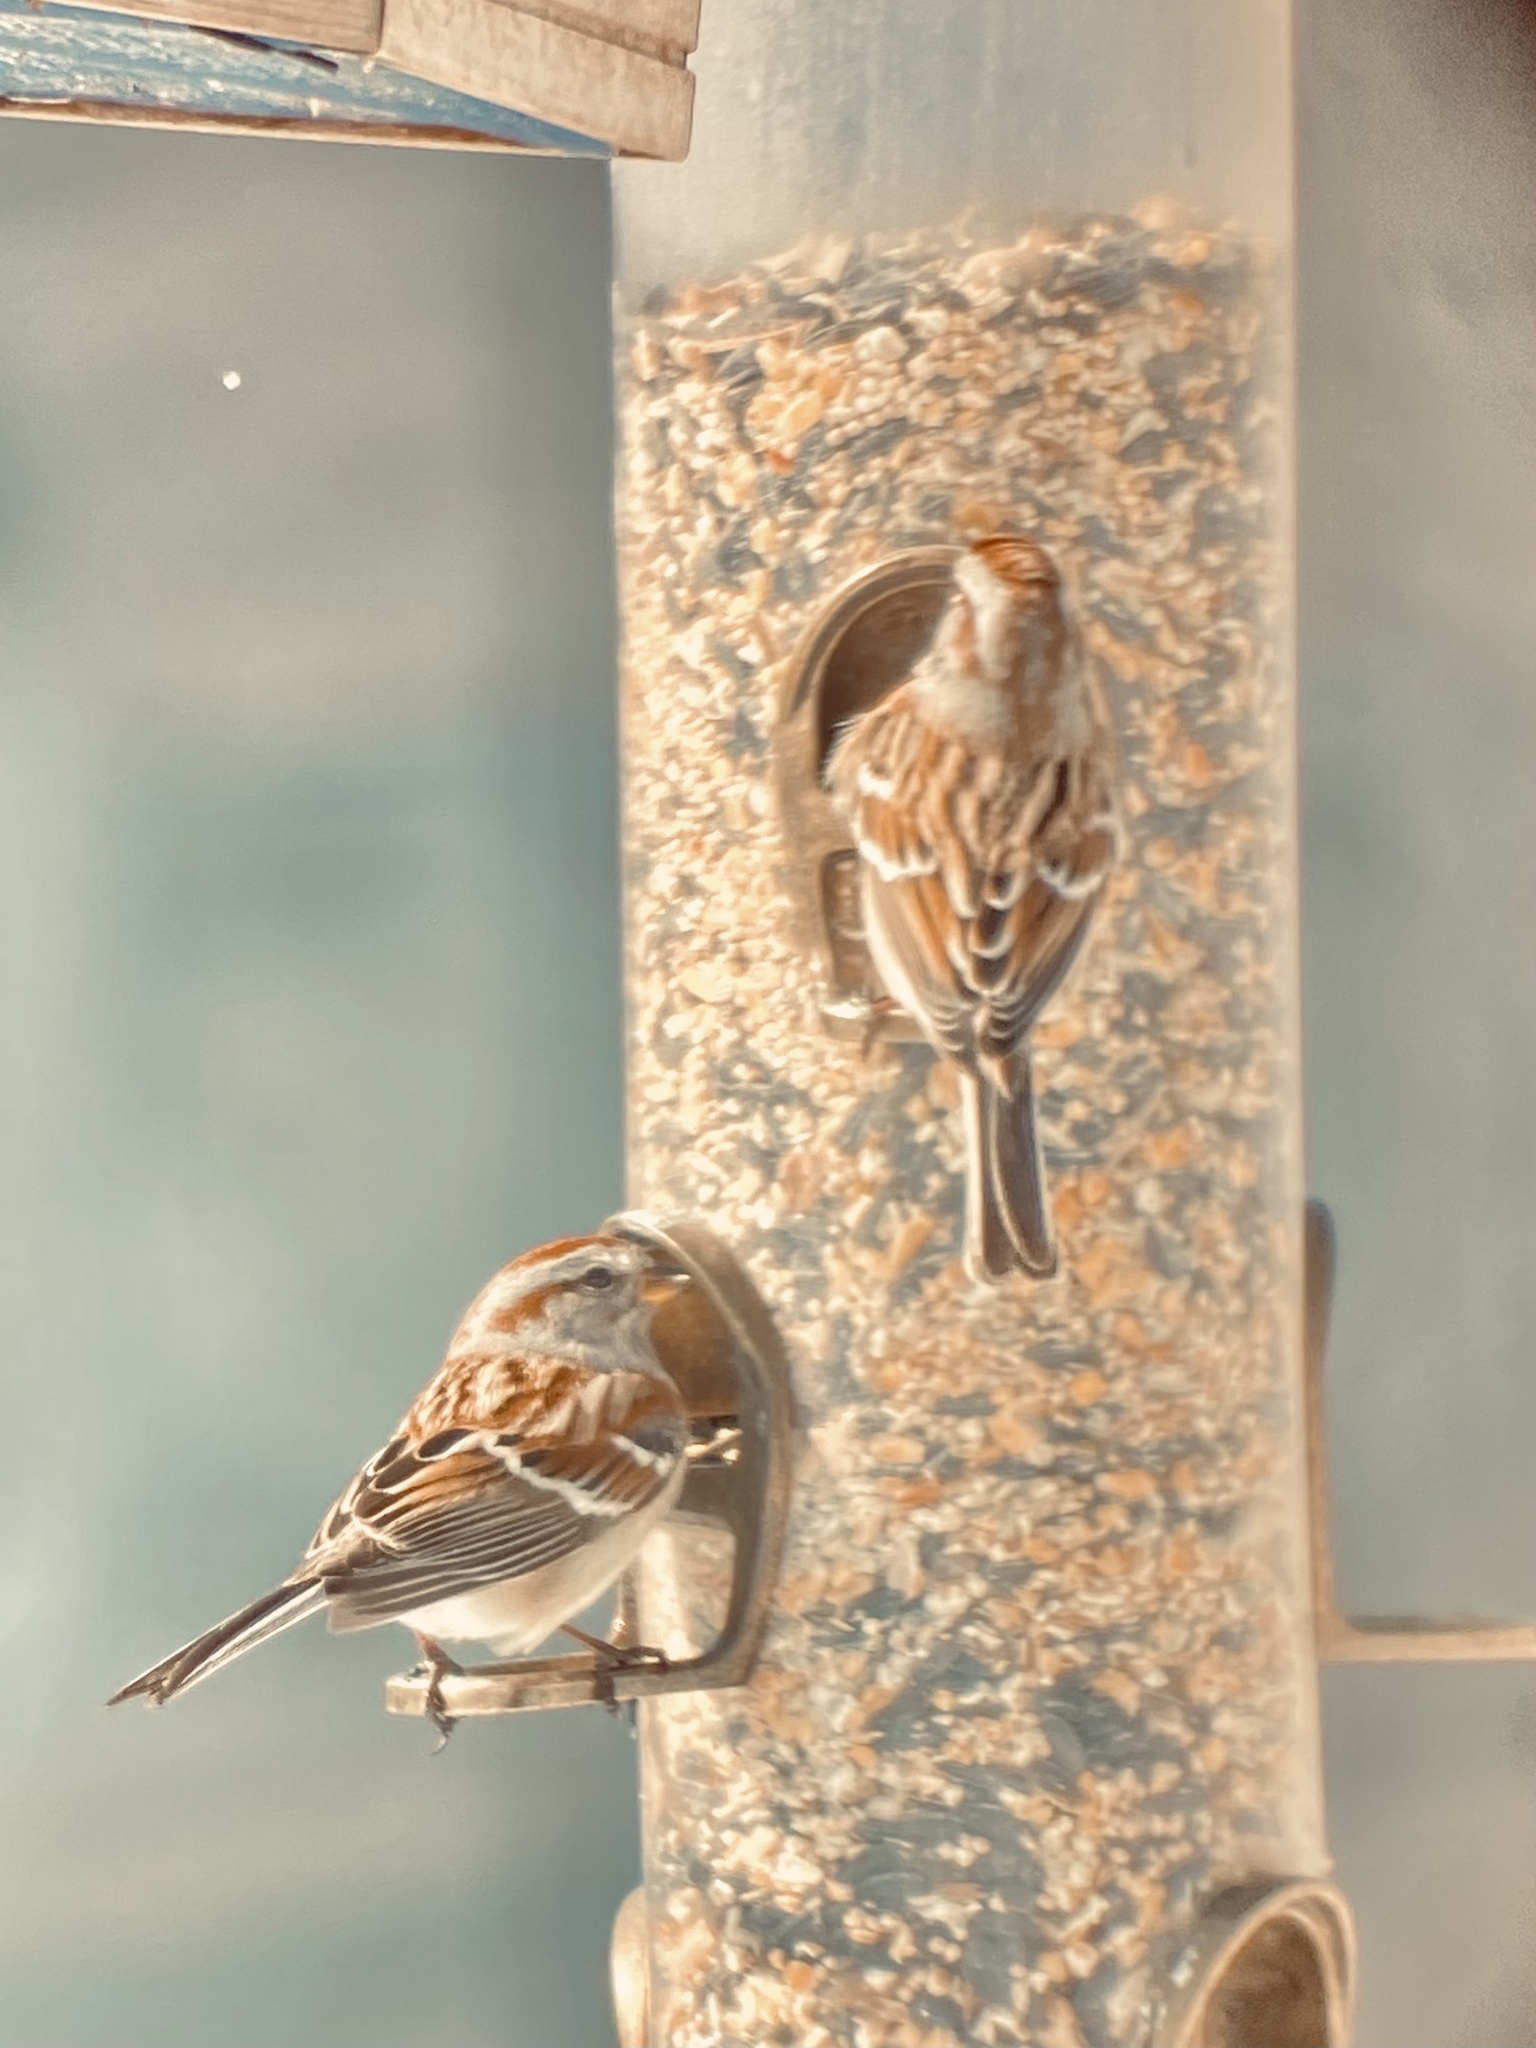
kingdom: Animalia
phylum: Chordata
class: Aves
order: Passeriformes
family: Passerellidae
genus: Spizelloides
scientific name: Spizelloides arborea
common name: American tree sparrow
